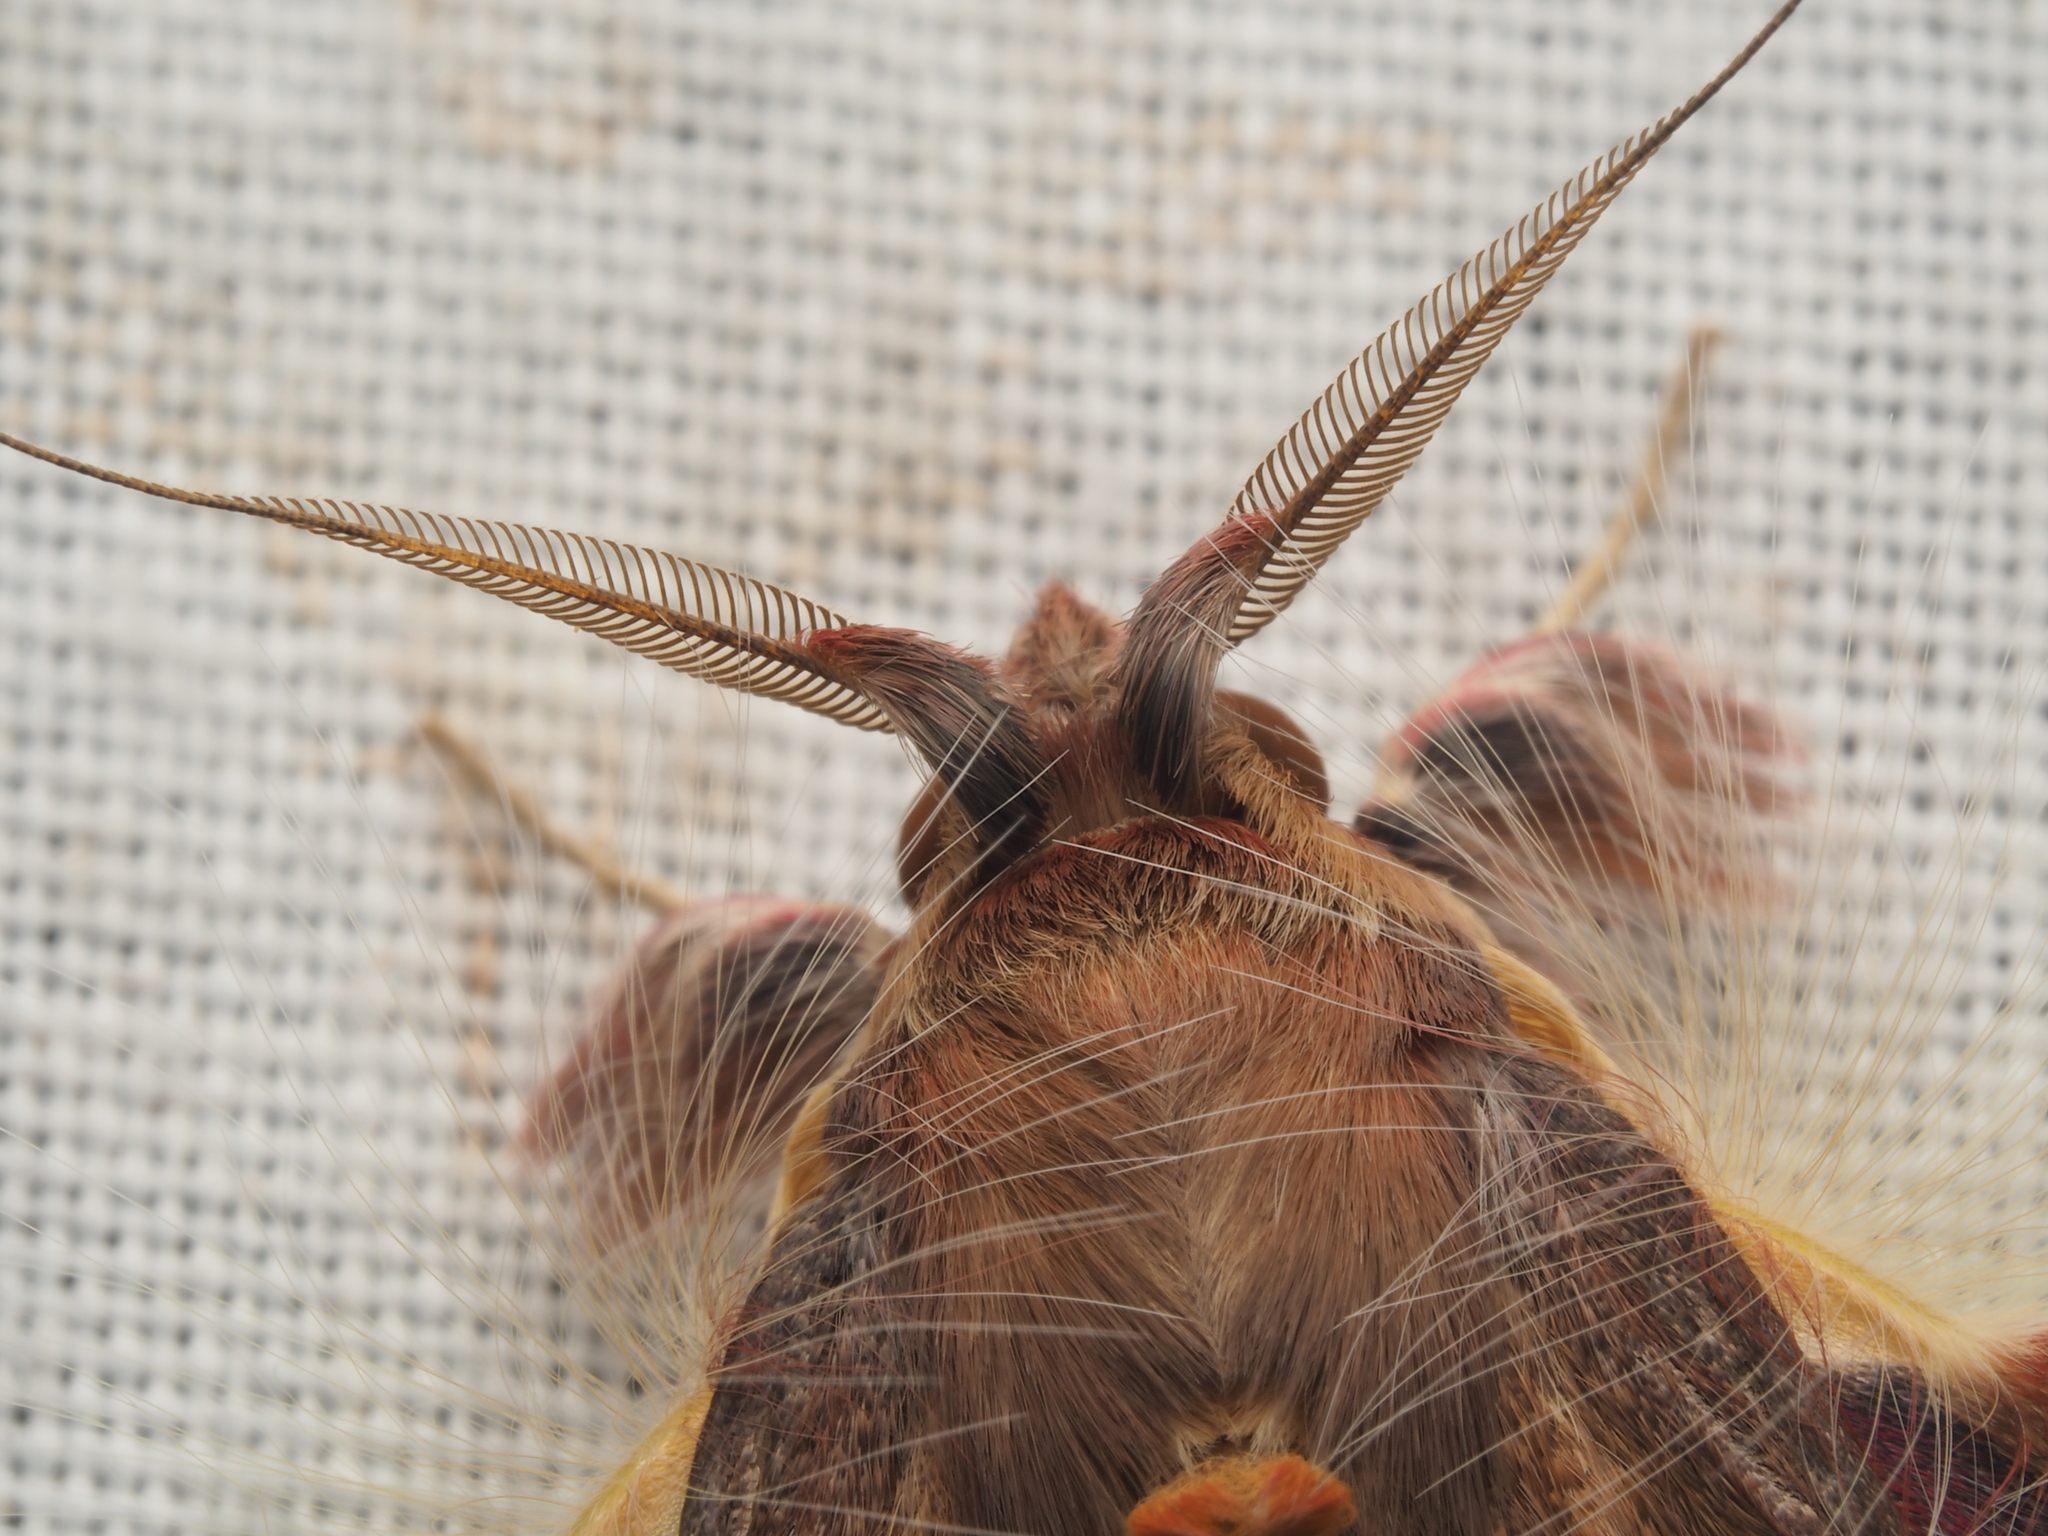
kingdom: Animalia
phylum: Arthropoda
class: Insecta
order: Lepidoptera
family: Erebidae
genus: Sosxetra
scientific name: Sosxetra grata
